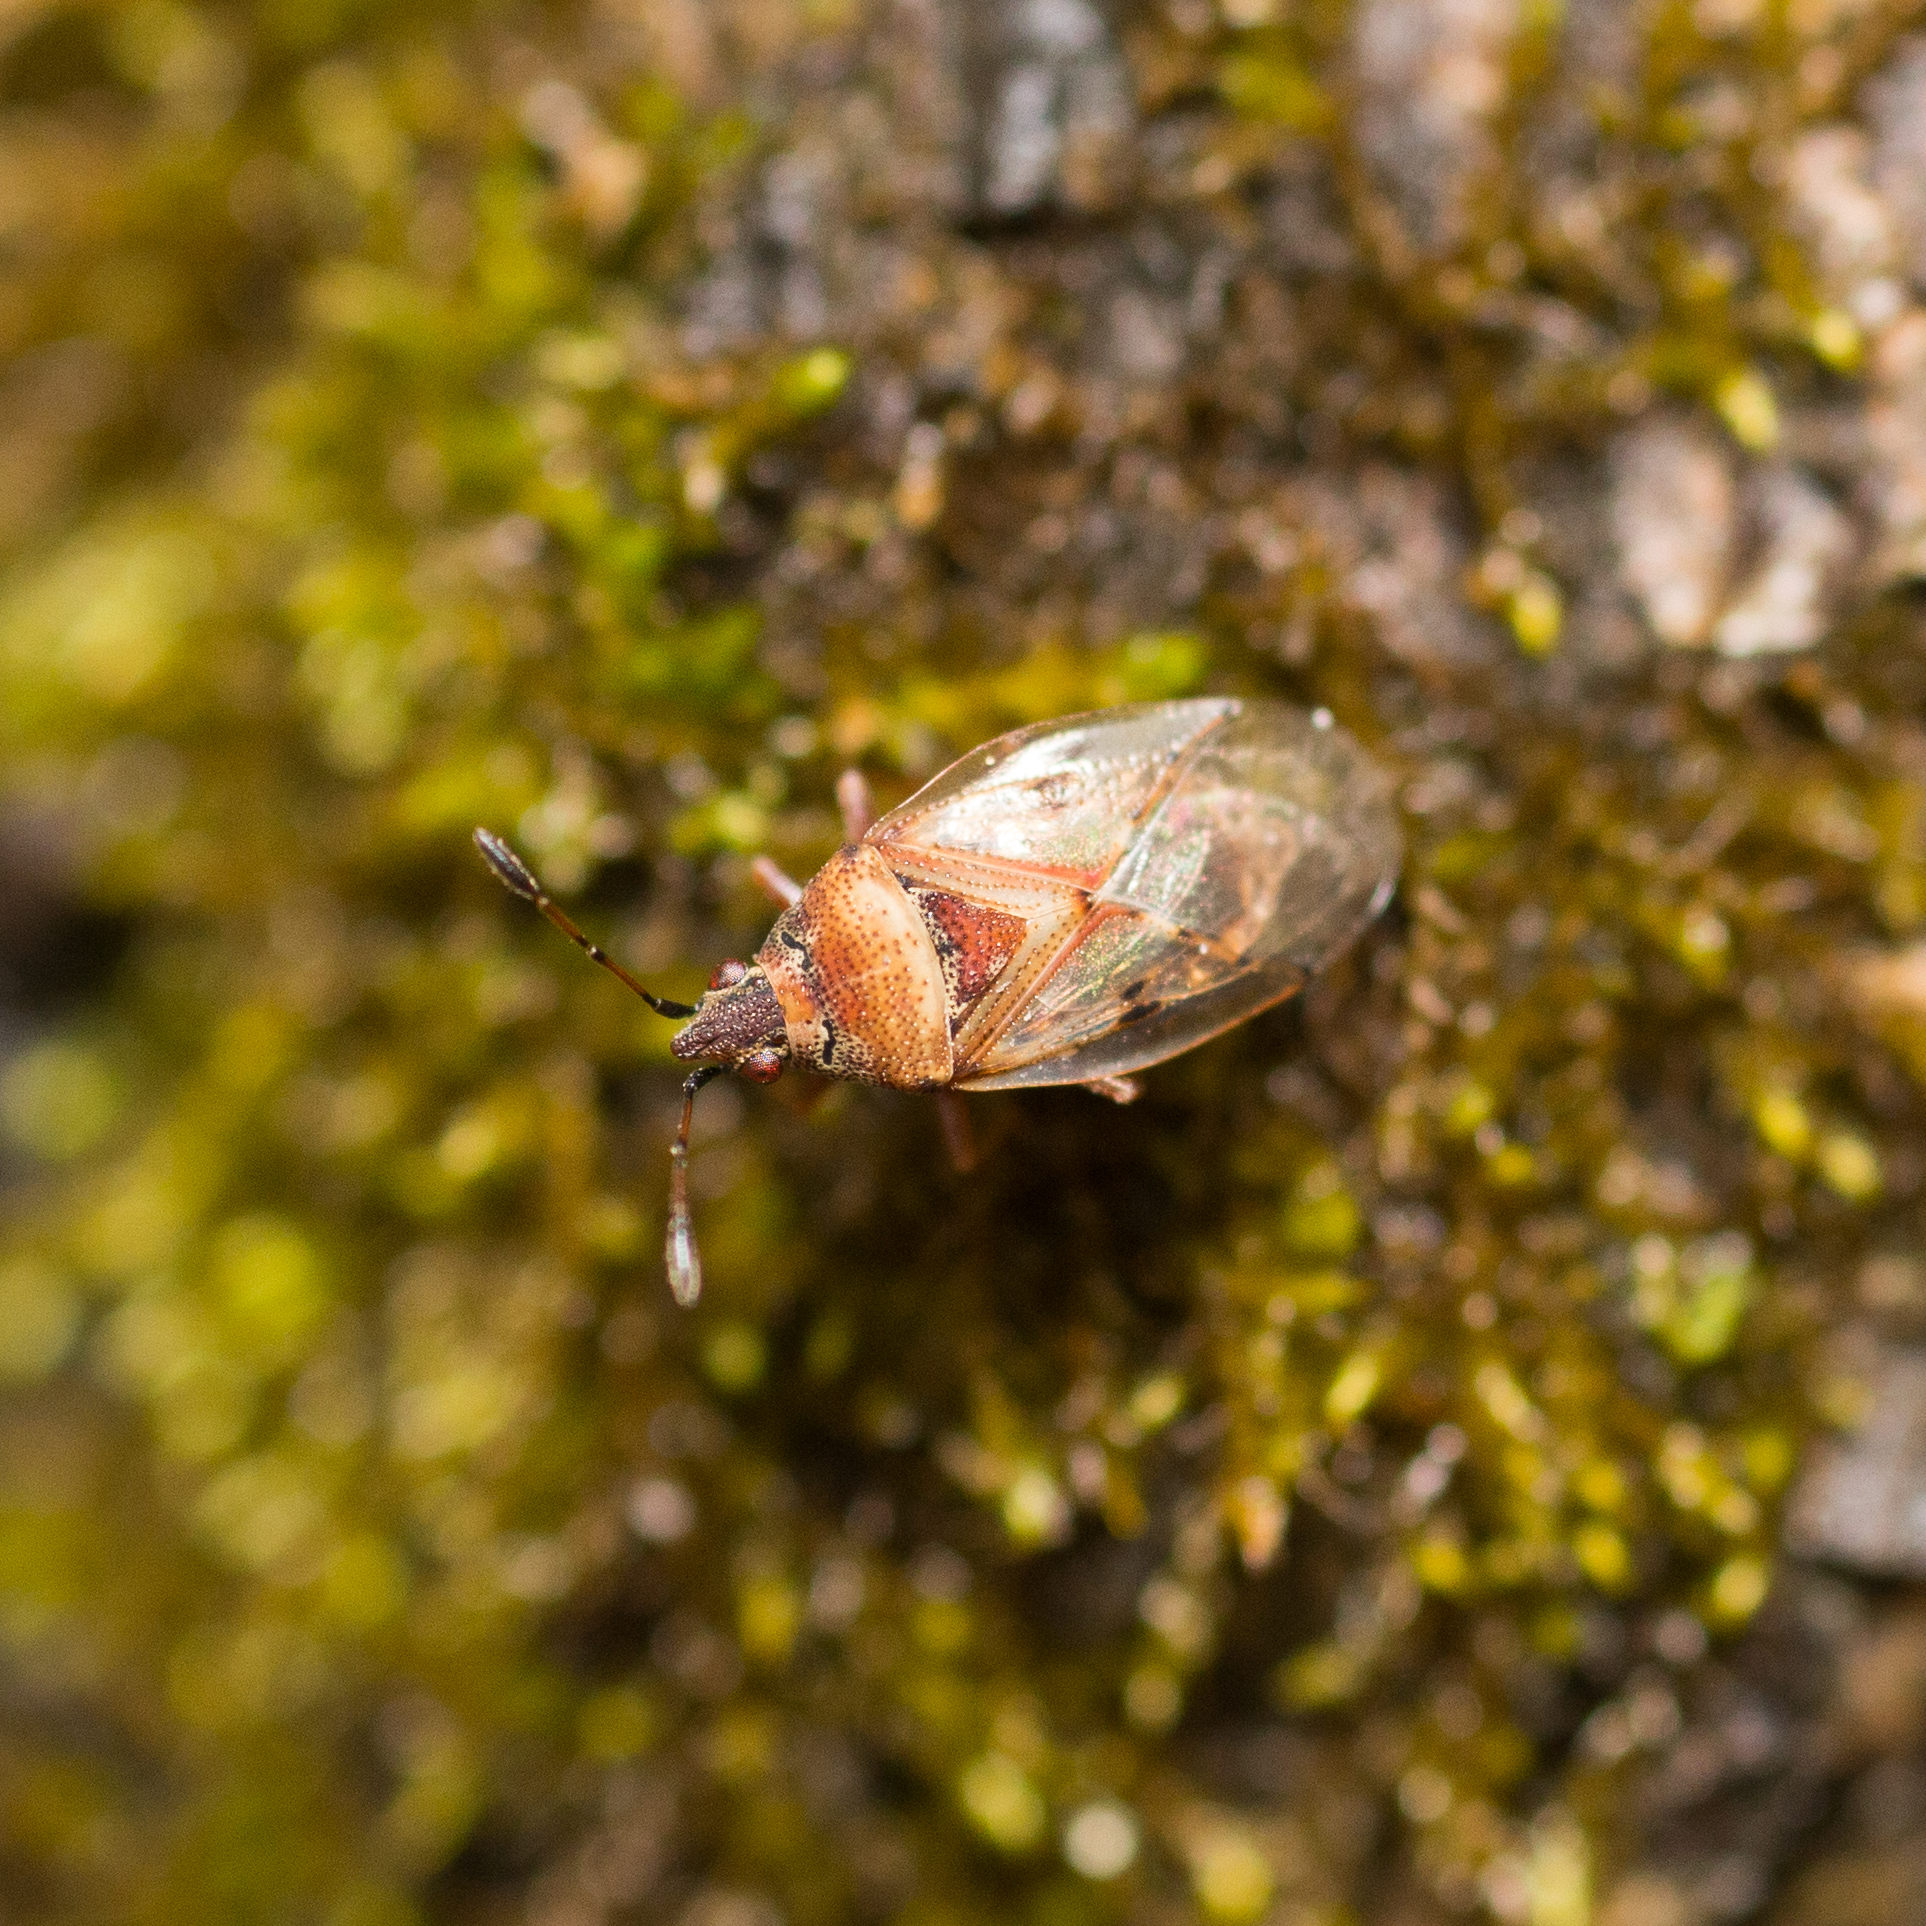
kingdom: Animalia
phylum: Arthropoda
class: Insecta
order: Hemiptera
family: Lygaeidae
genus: Kleidocerys
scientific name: Kleidocerys resedae
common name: Birch catkin bug
